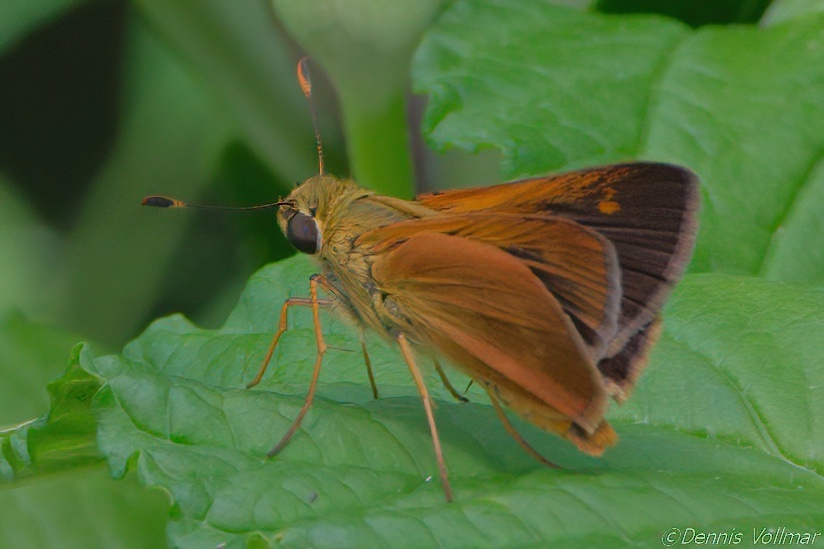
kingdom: Animalia
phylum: Arthropoda
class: Insecta
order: Lepidoptera
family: Hesperiidae
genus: Polites
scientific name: Polites otho
